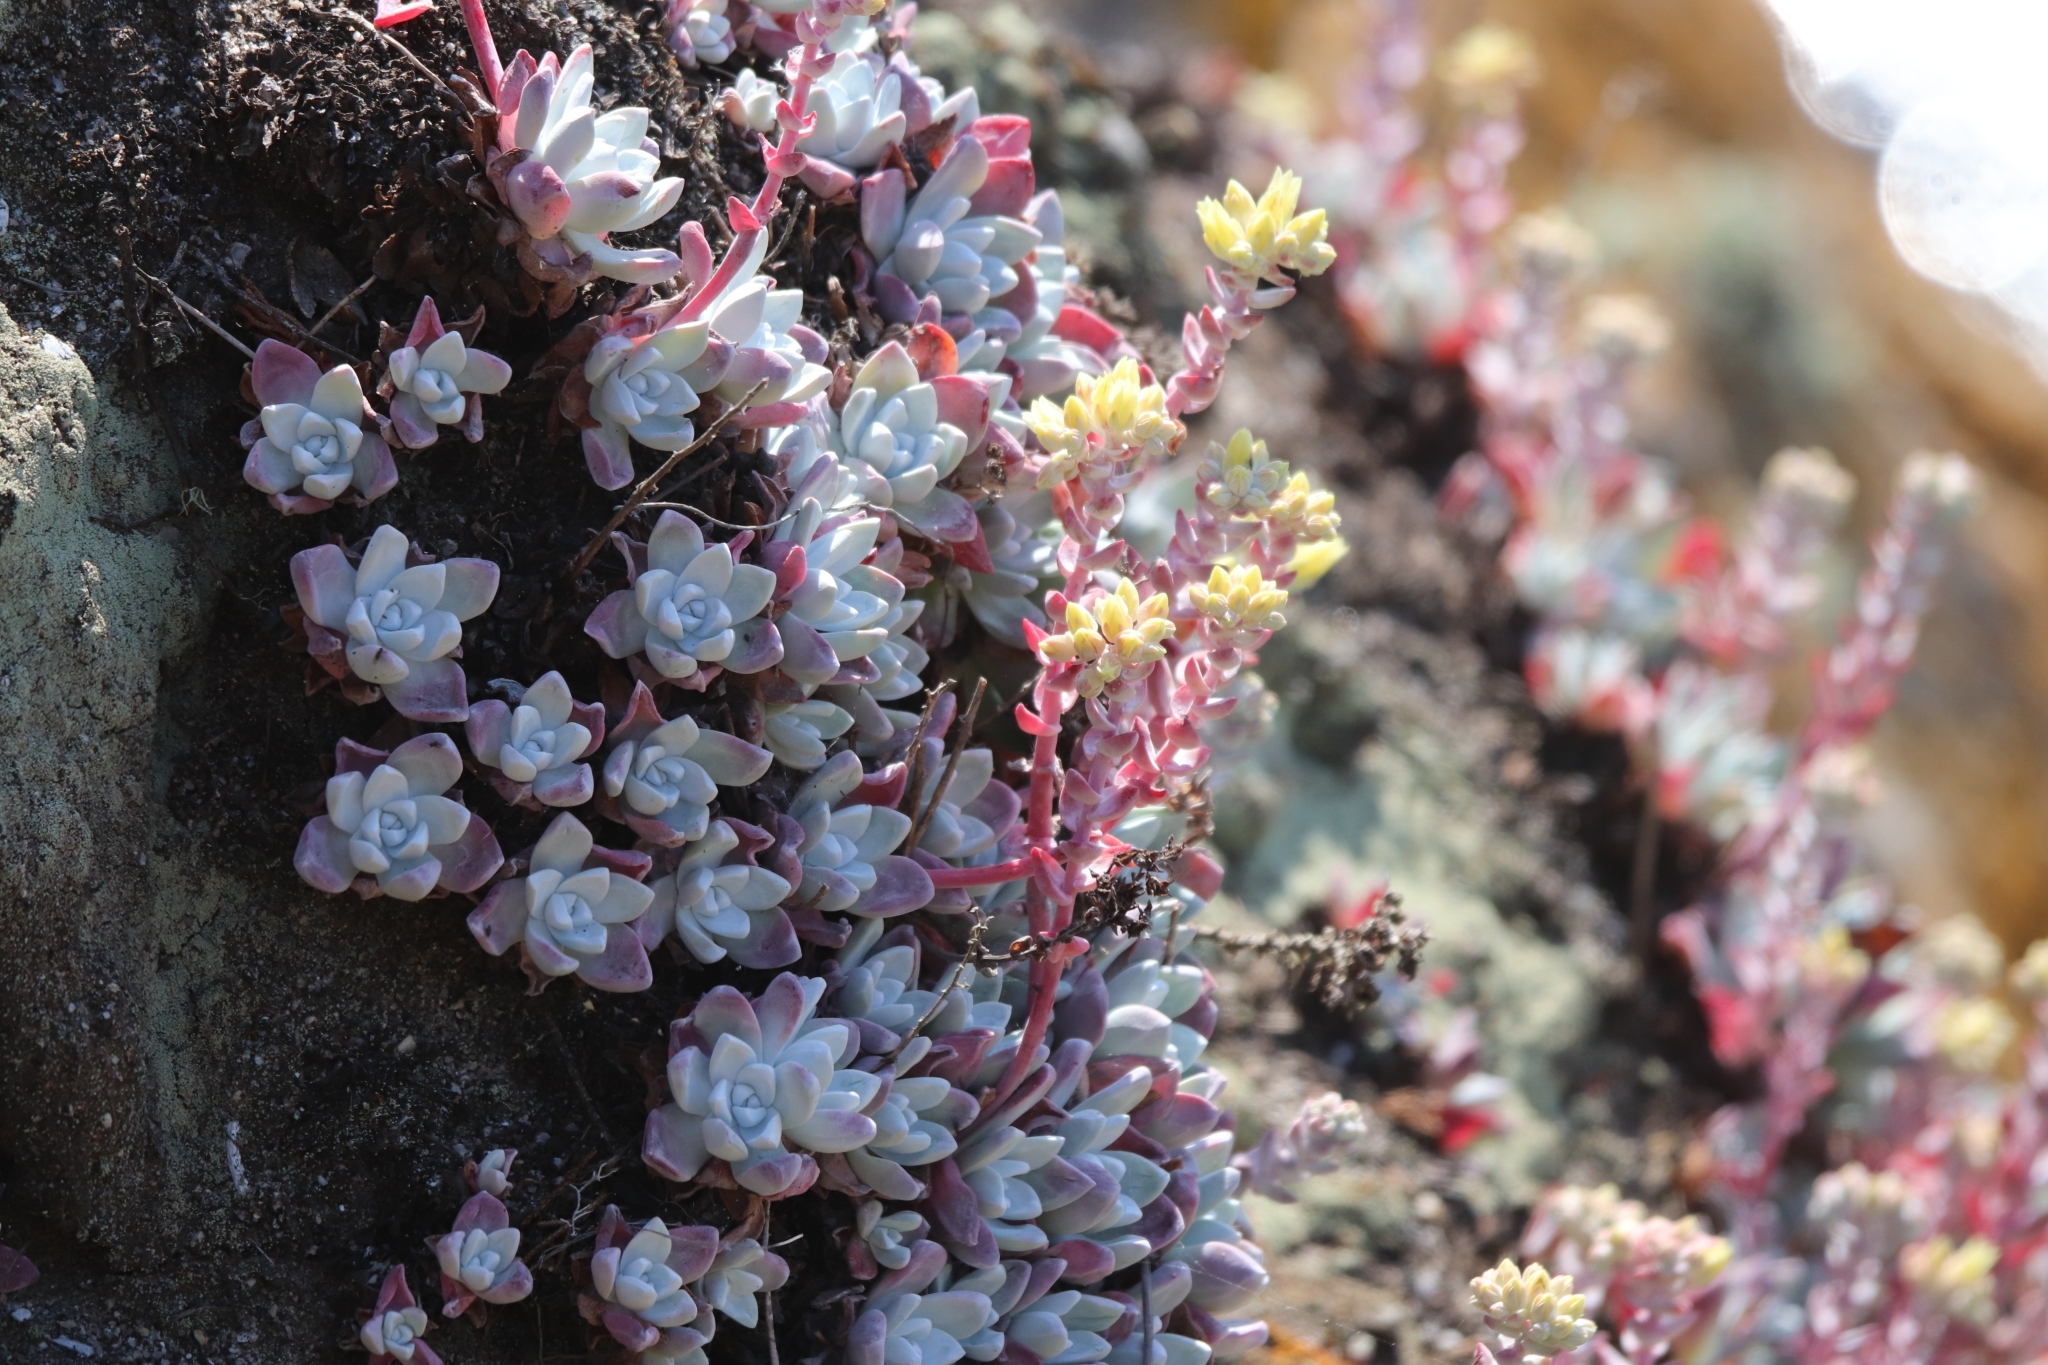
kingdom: Plantae
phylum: Tracheophyta
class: Magnoliopsida
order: Saxifragales
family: Crassulaceae
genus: Dudleya
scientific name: Dudleya farinosa
